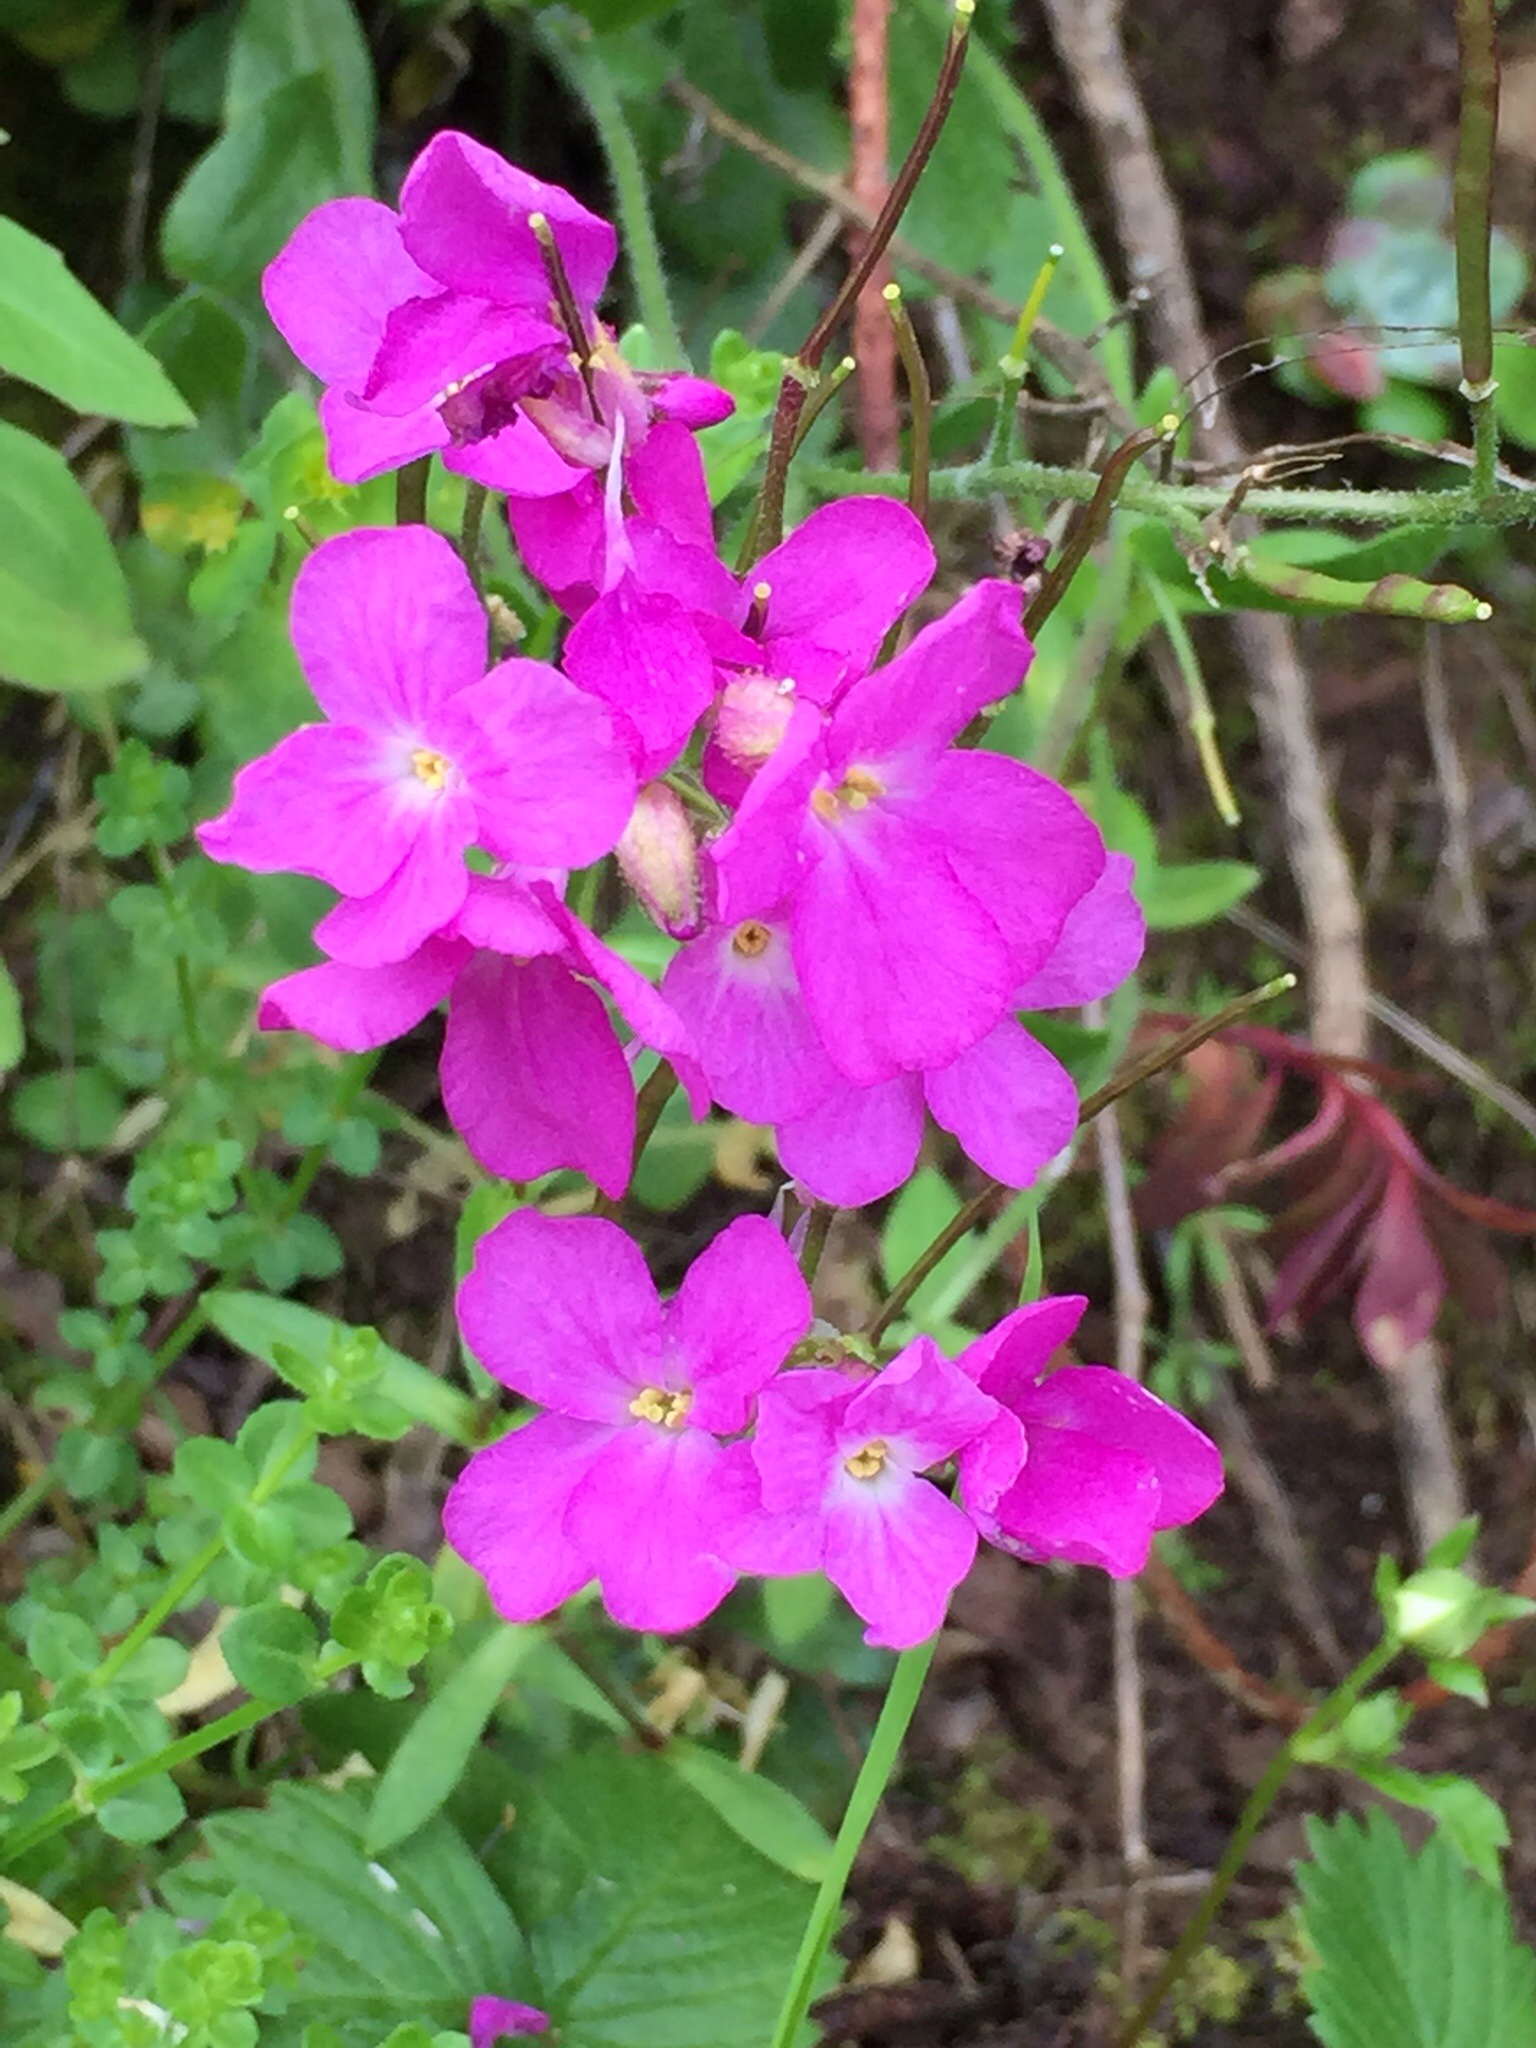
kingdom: Plantae
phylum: Tracheophyta
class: Magnoliopsida
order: Brassicales
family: Brassicaceae
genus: Arabis
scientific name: Arabis blepharophylla
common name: Rose rockcress
